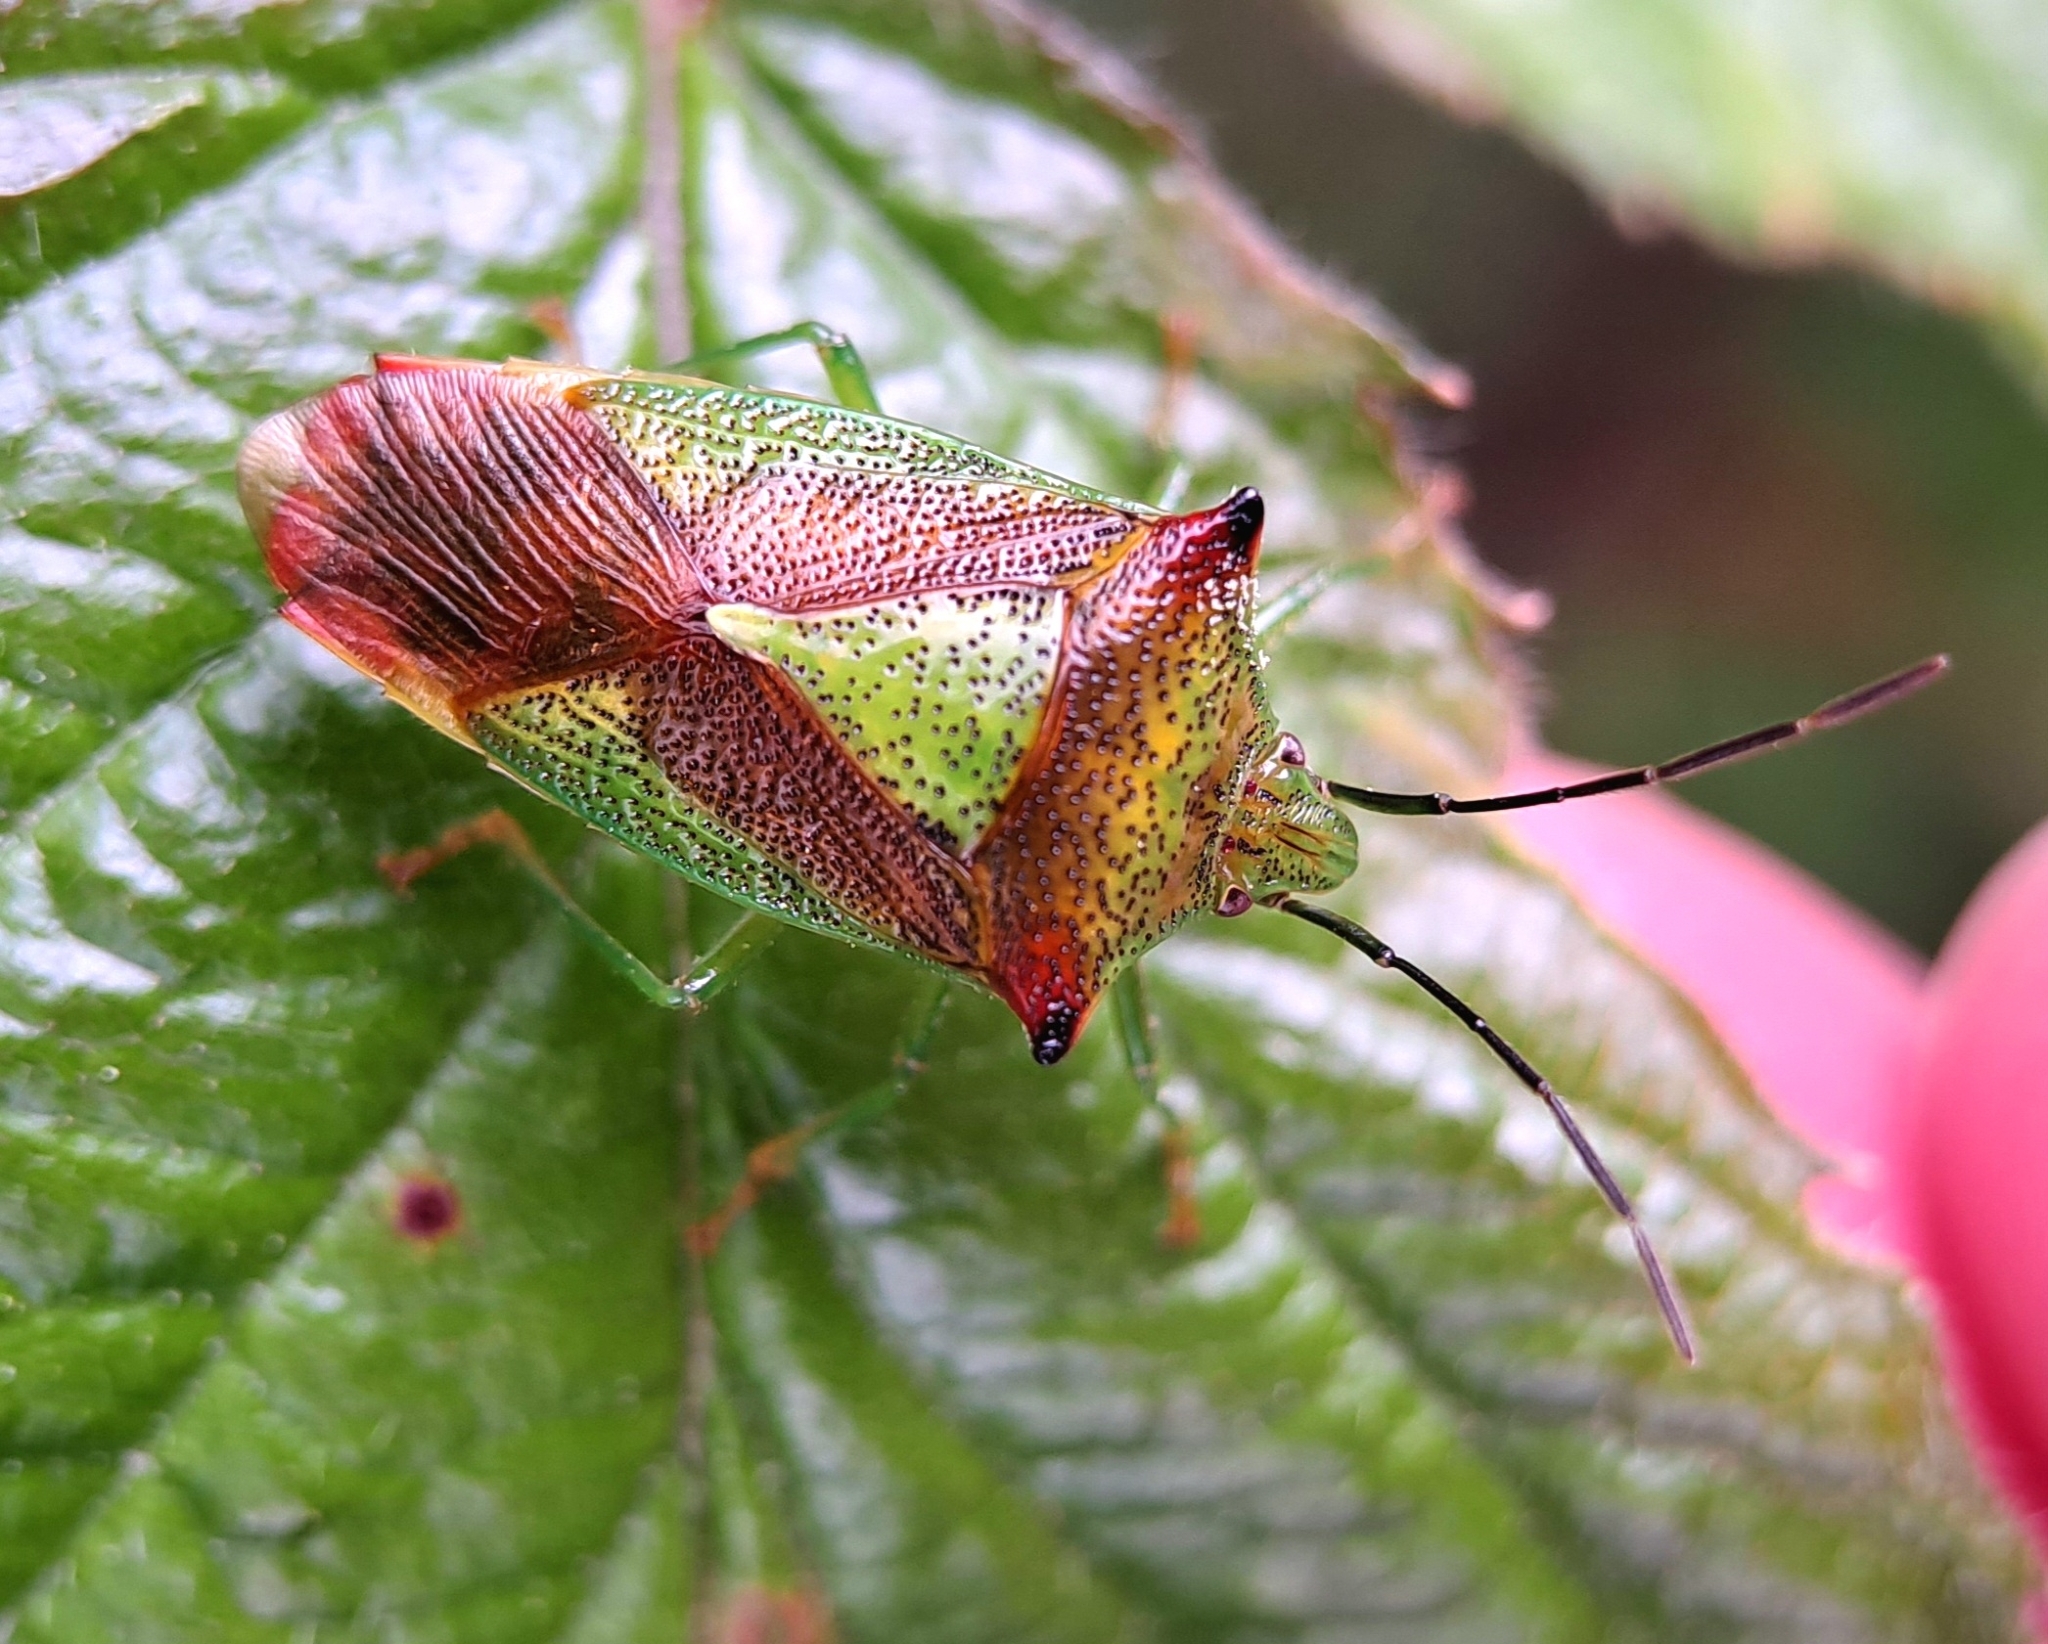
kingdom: Animalia
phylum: Arthropoda
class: Insecta
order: Hemiptera
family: Acanthosomatidae
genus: Acanthosoma
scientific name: Acanthosoma haemorrhoidale
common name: Hawthorn shieldbug
